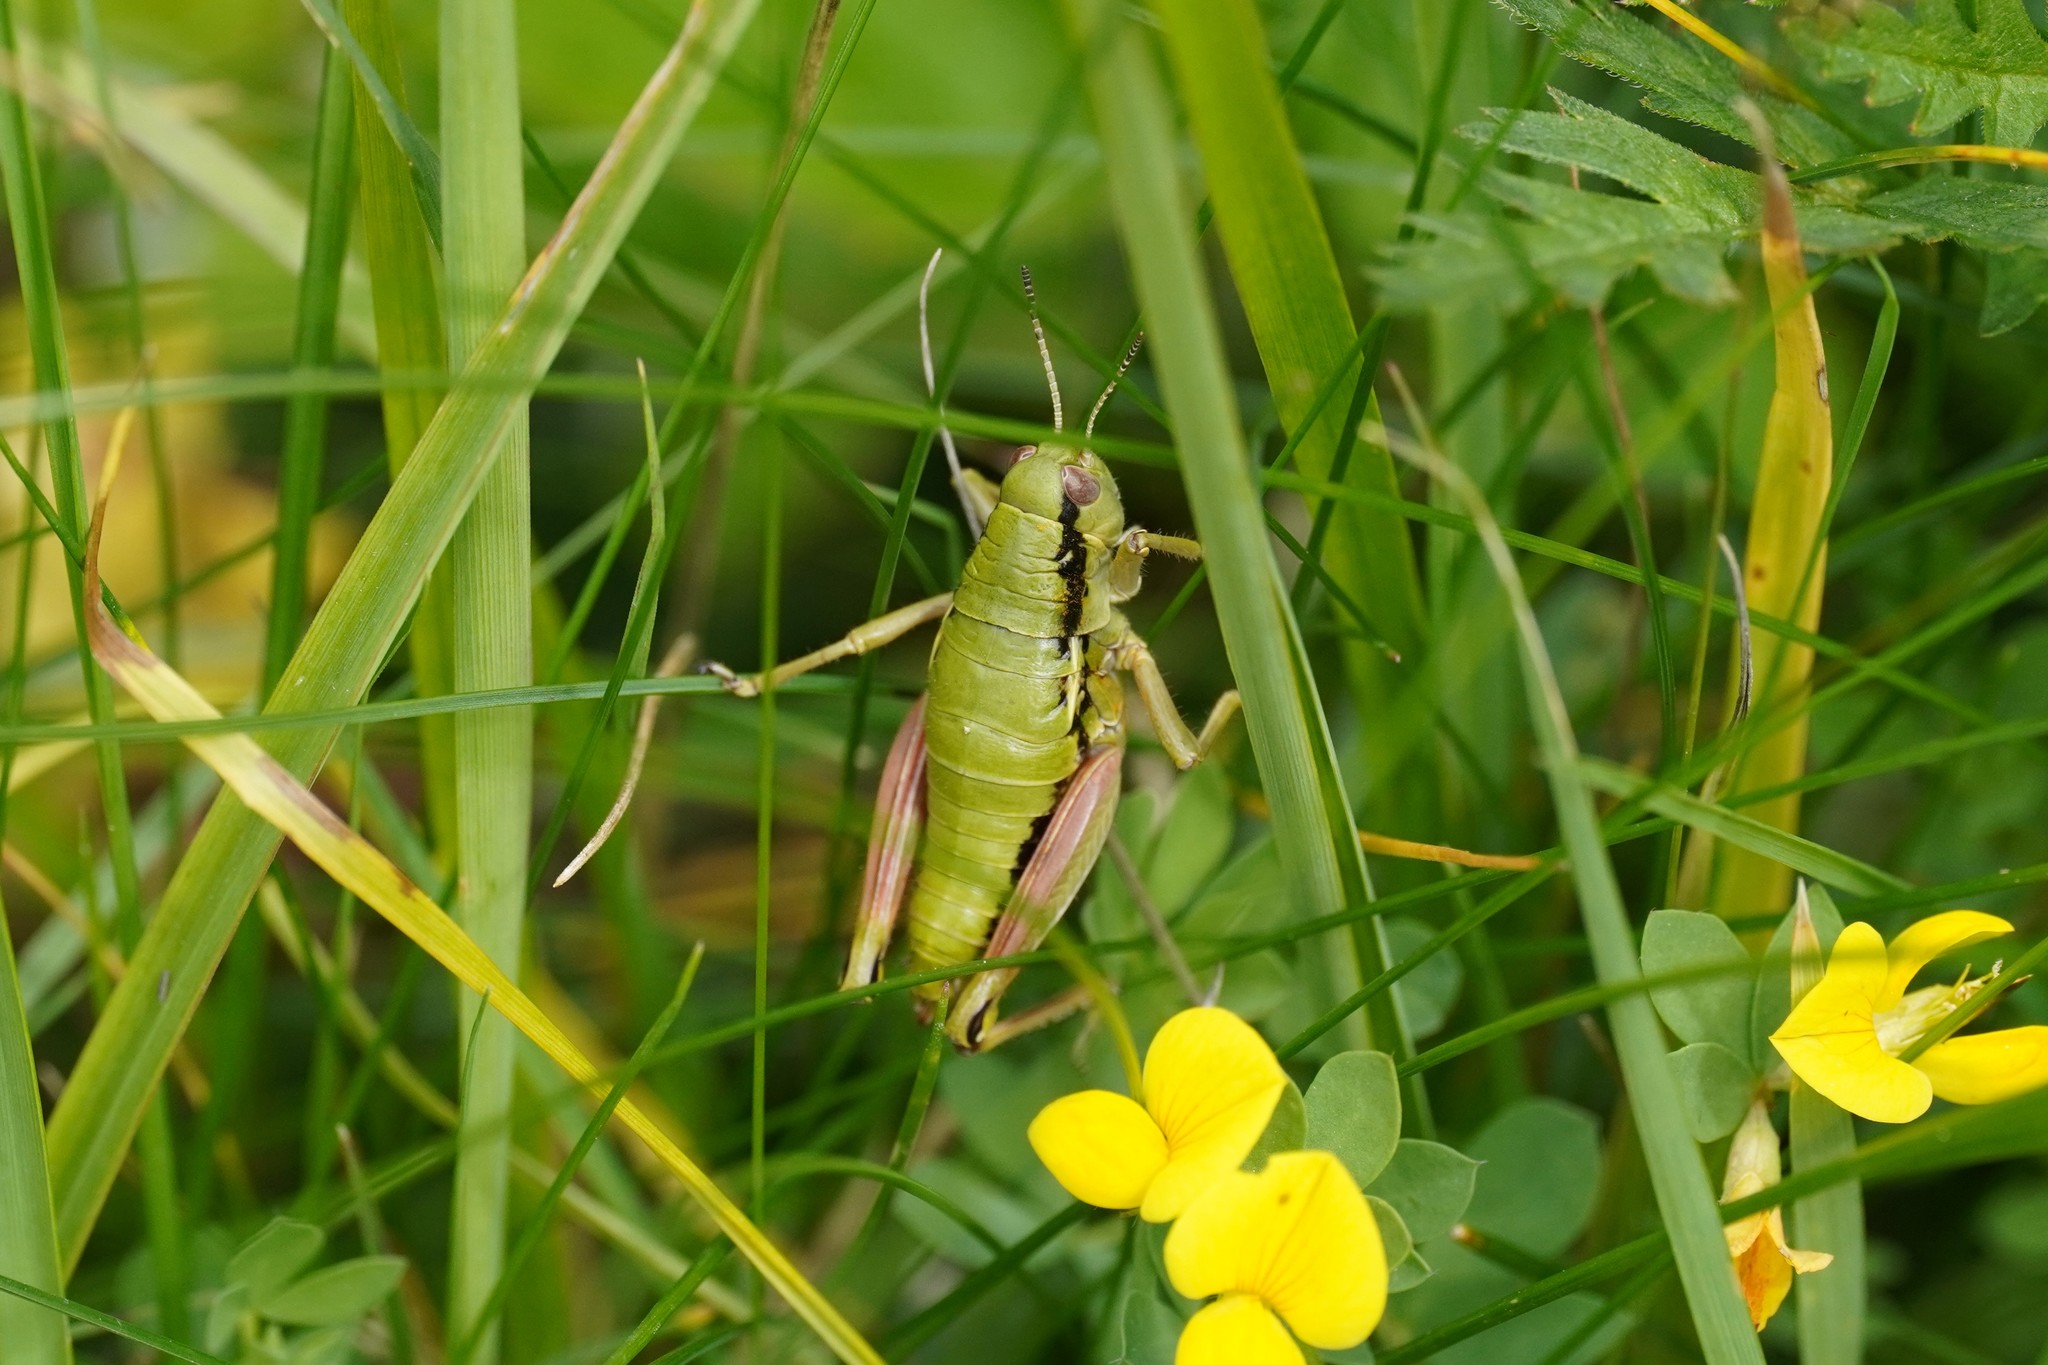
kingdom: Animalia
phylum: Arthropoda
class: Insecta
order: Orthoptera
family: Acrididae
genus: Epipodisma
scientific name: Epipodisma pedemontana
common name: Piedmont mountain grasshopper
